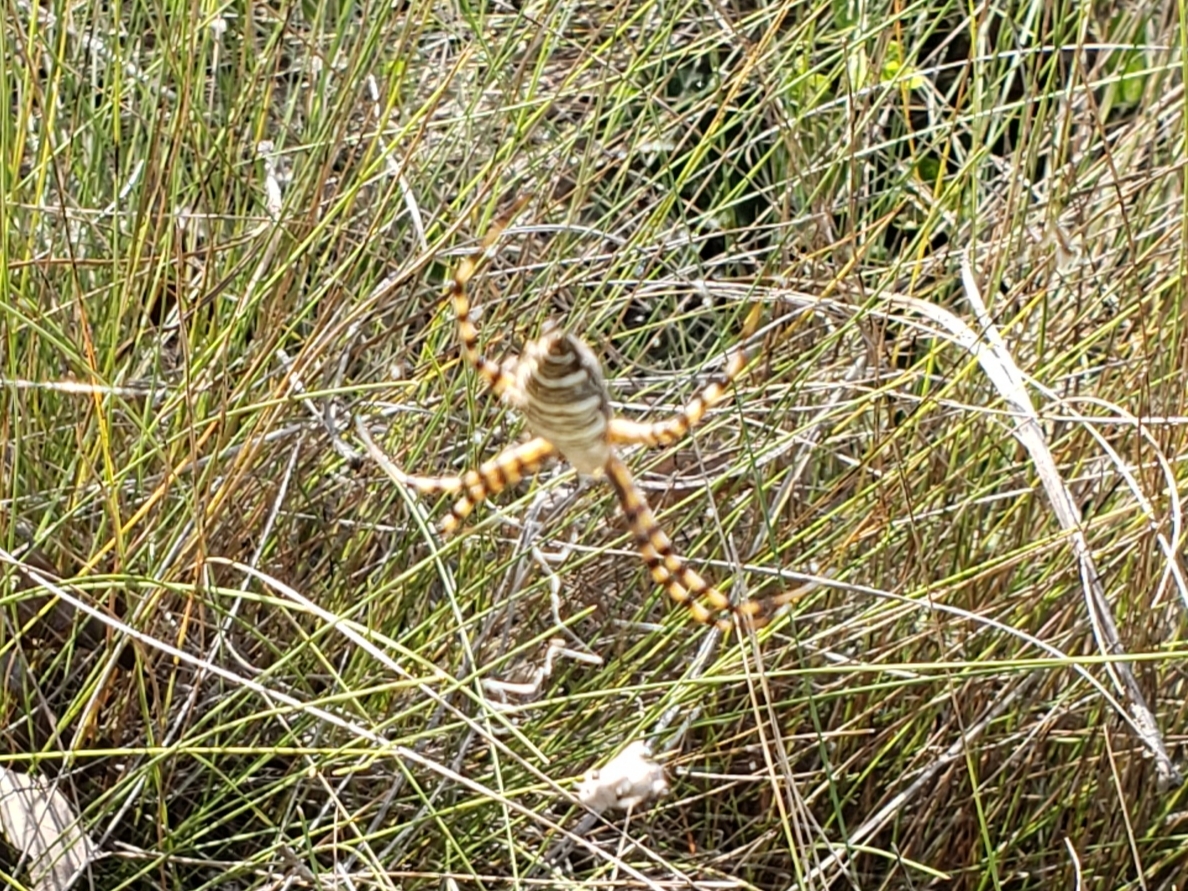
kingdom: Animalia
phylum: Arthropoda
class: Arachnida
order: Araneae
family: Araneidae
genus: Argiope
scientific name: Argiope trifasciata
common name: Banded garden spider
